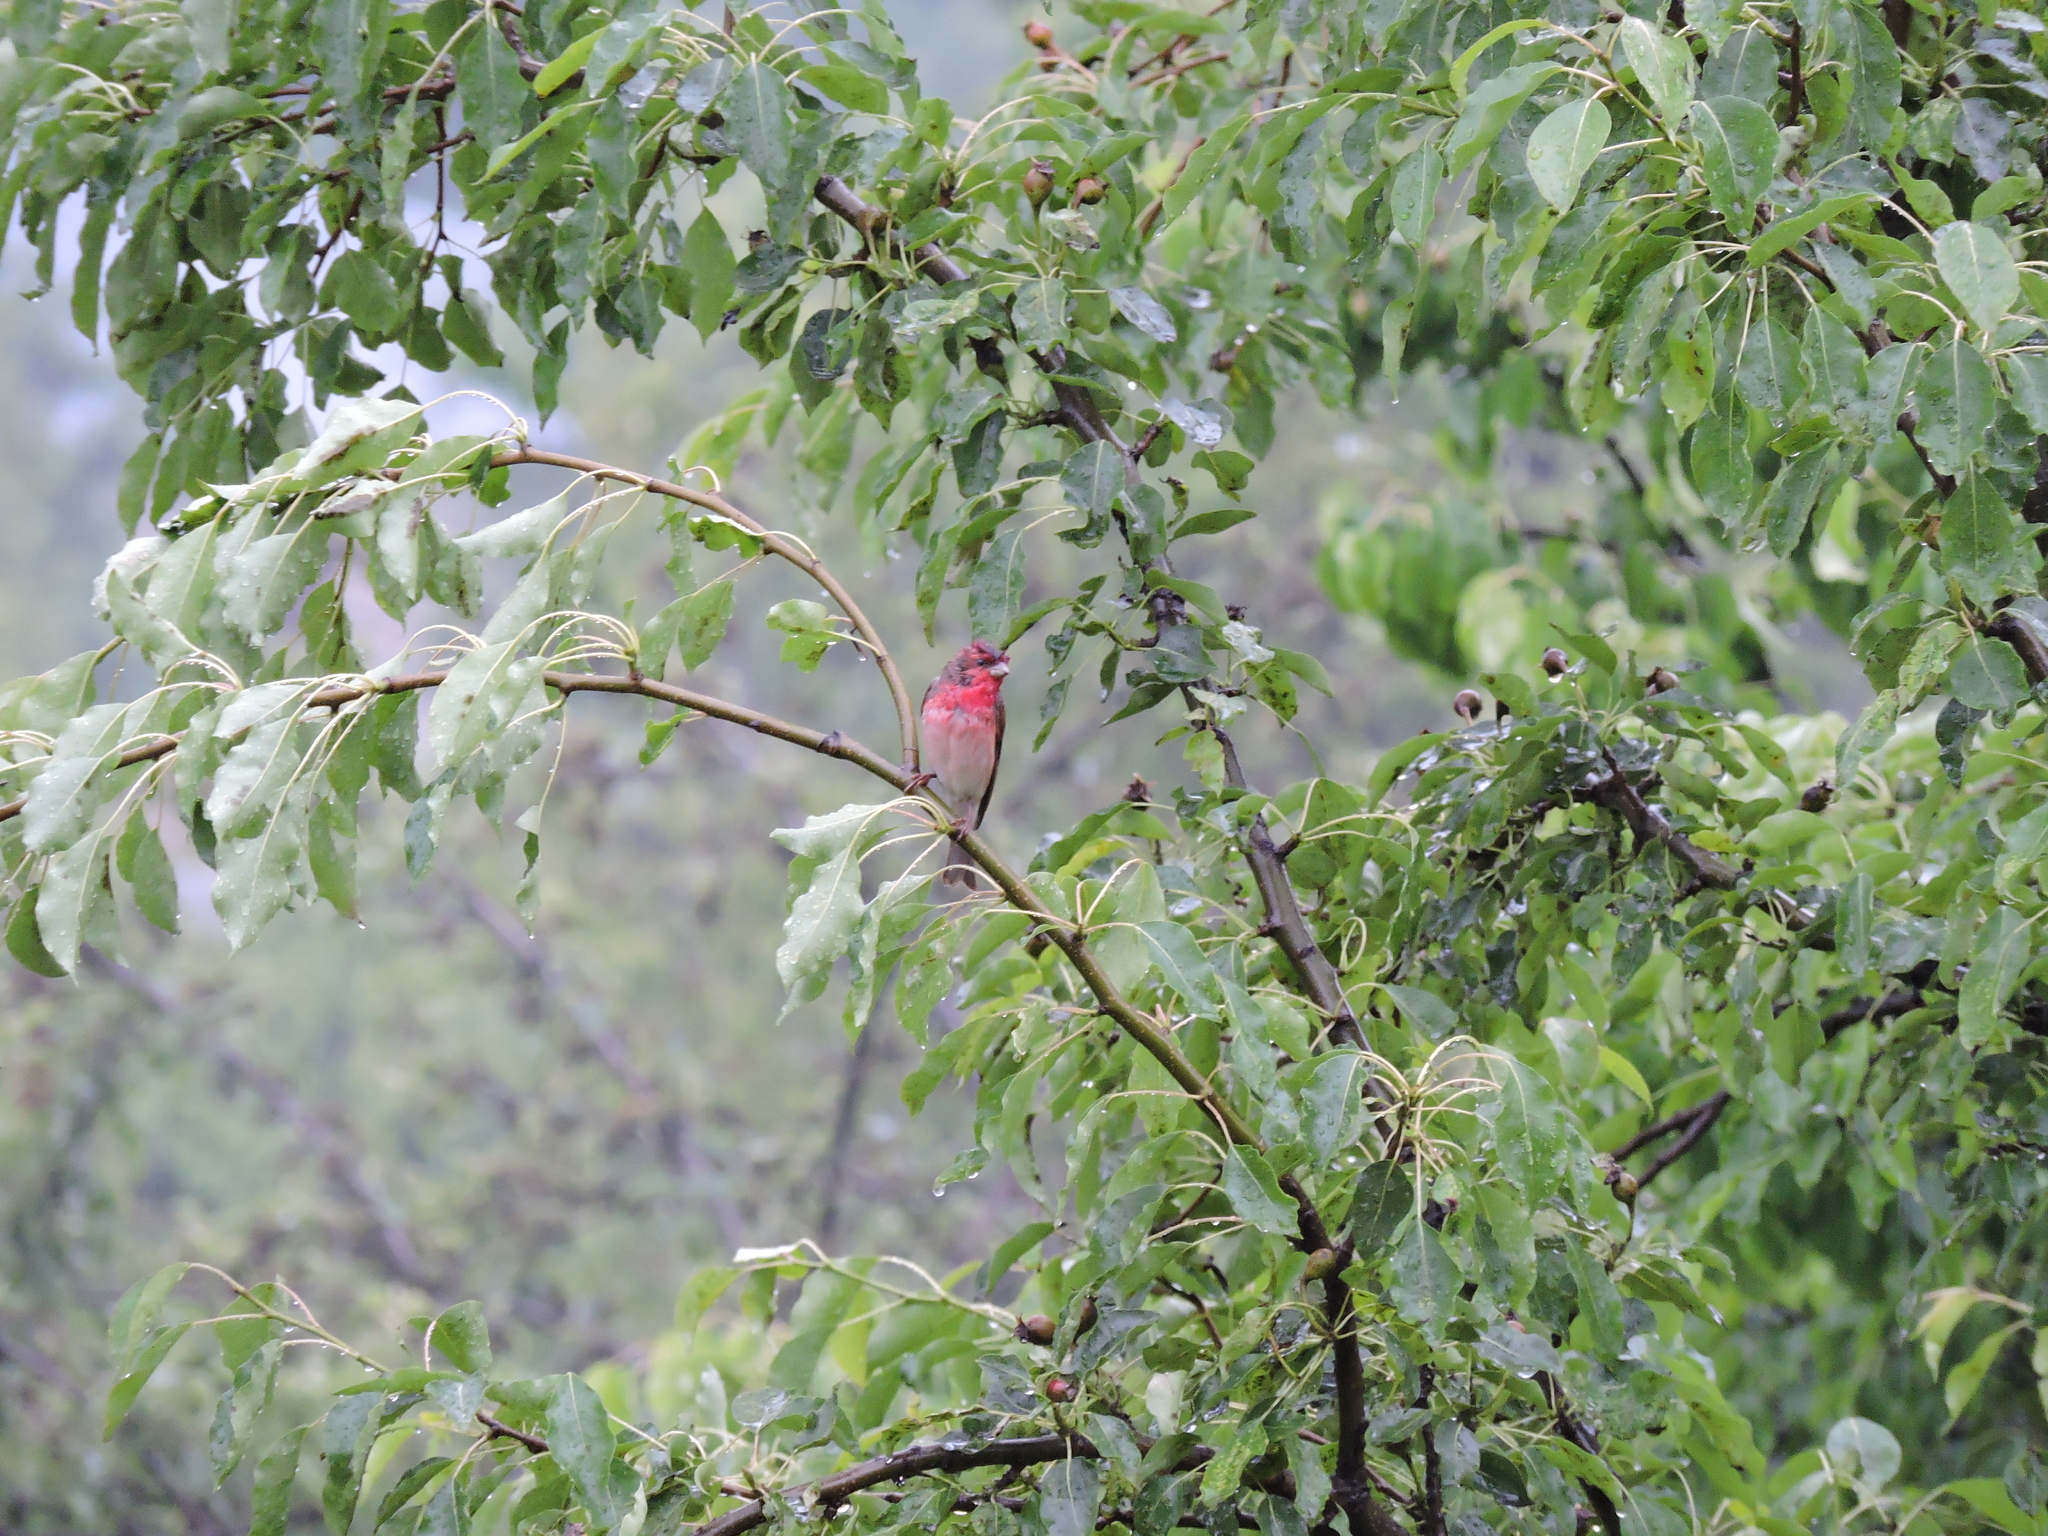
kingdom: Animalia
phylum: Chordata
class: Aves
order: Passeriformes
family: Fringillidae
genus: Carpodacus
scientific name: Carpodacus erythrinus
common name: Common rosefinch
